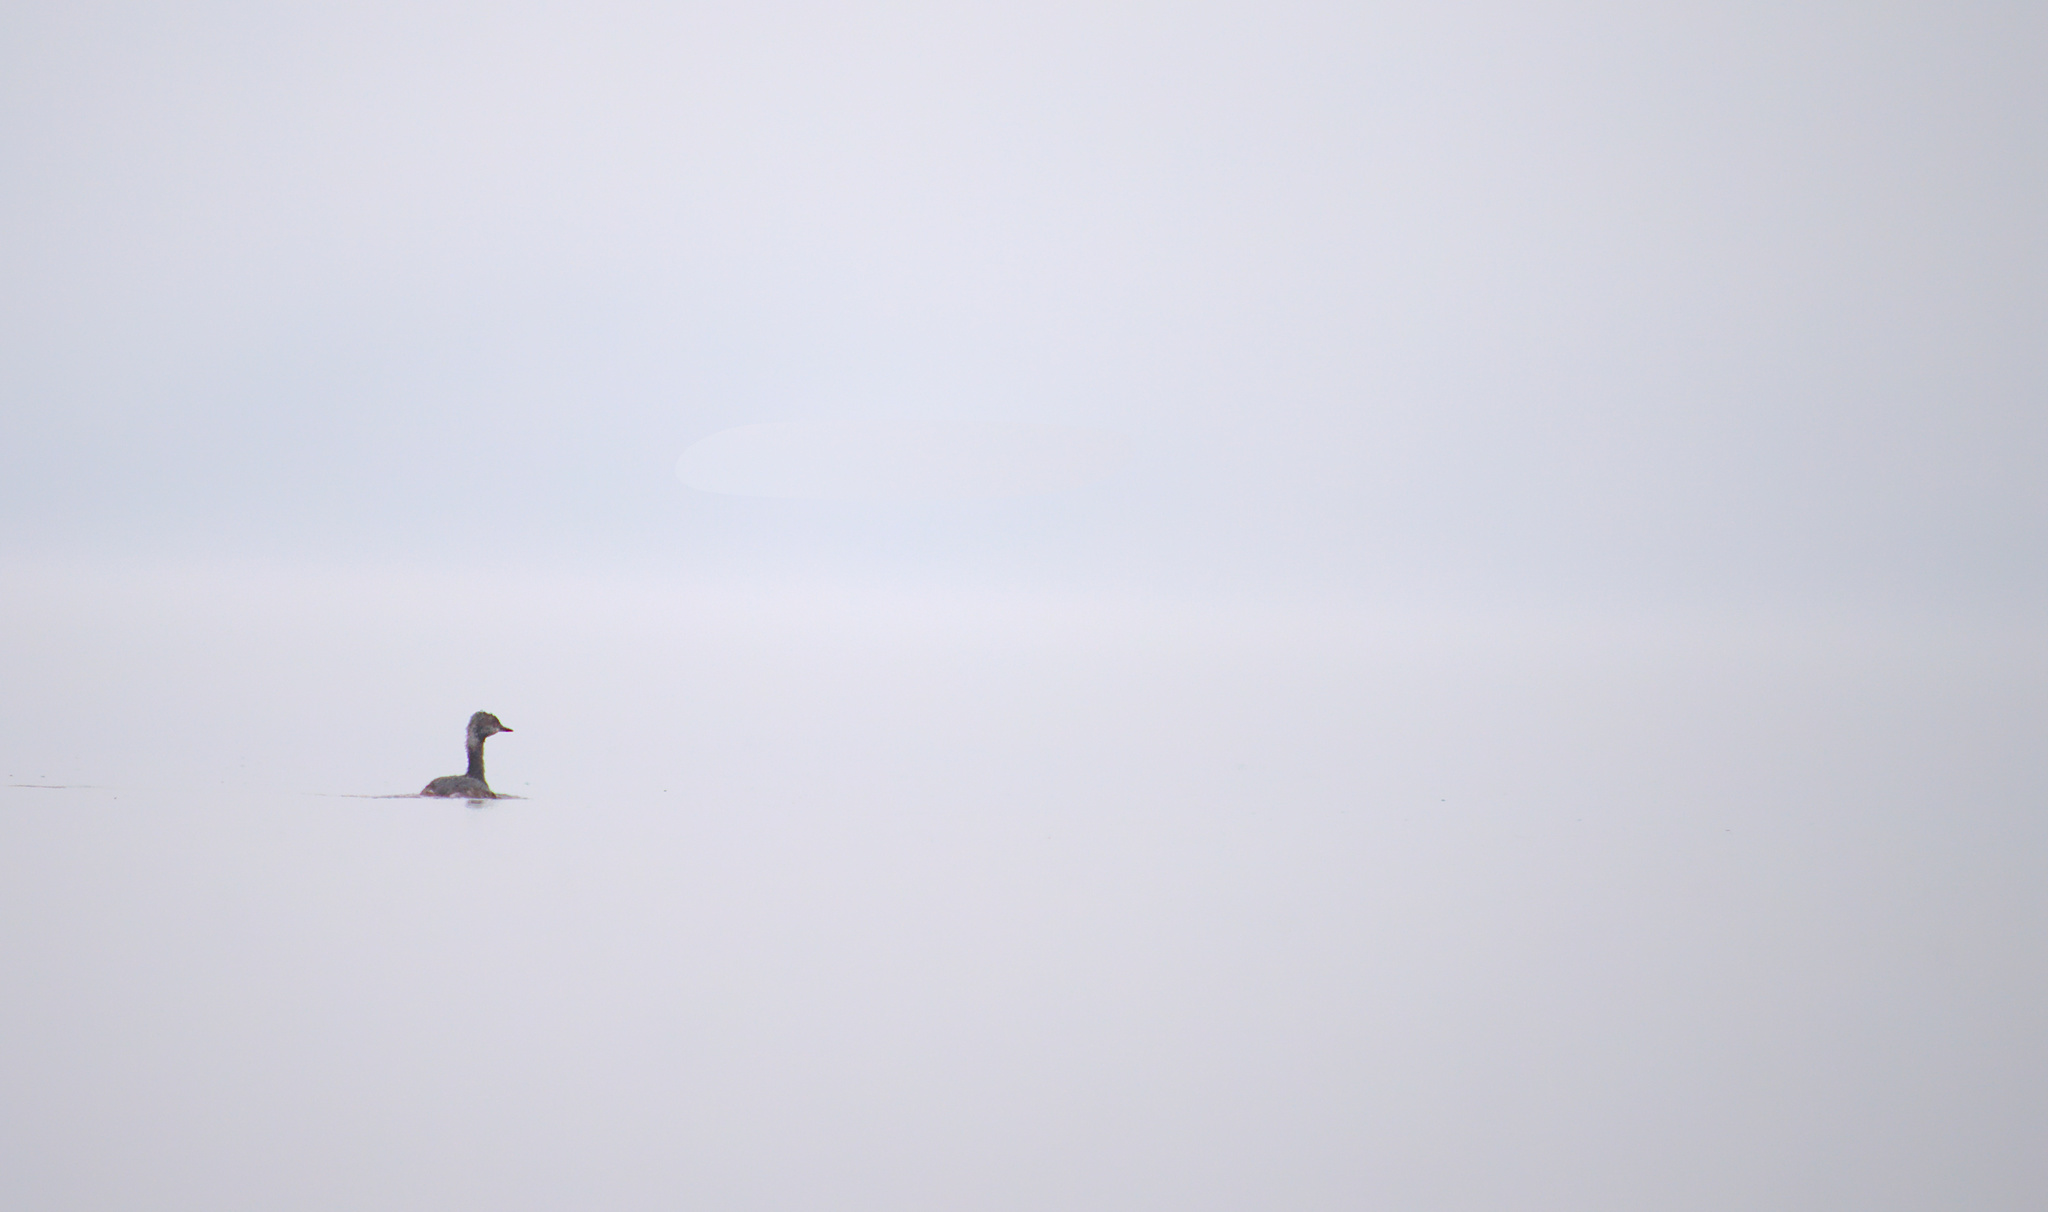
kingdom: Animalia
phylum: Chordata
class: Aves
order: Podicipediformes
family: Podicipedidae
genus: Podiceps
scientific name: Podiceps auritus
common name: Horned grebe
